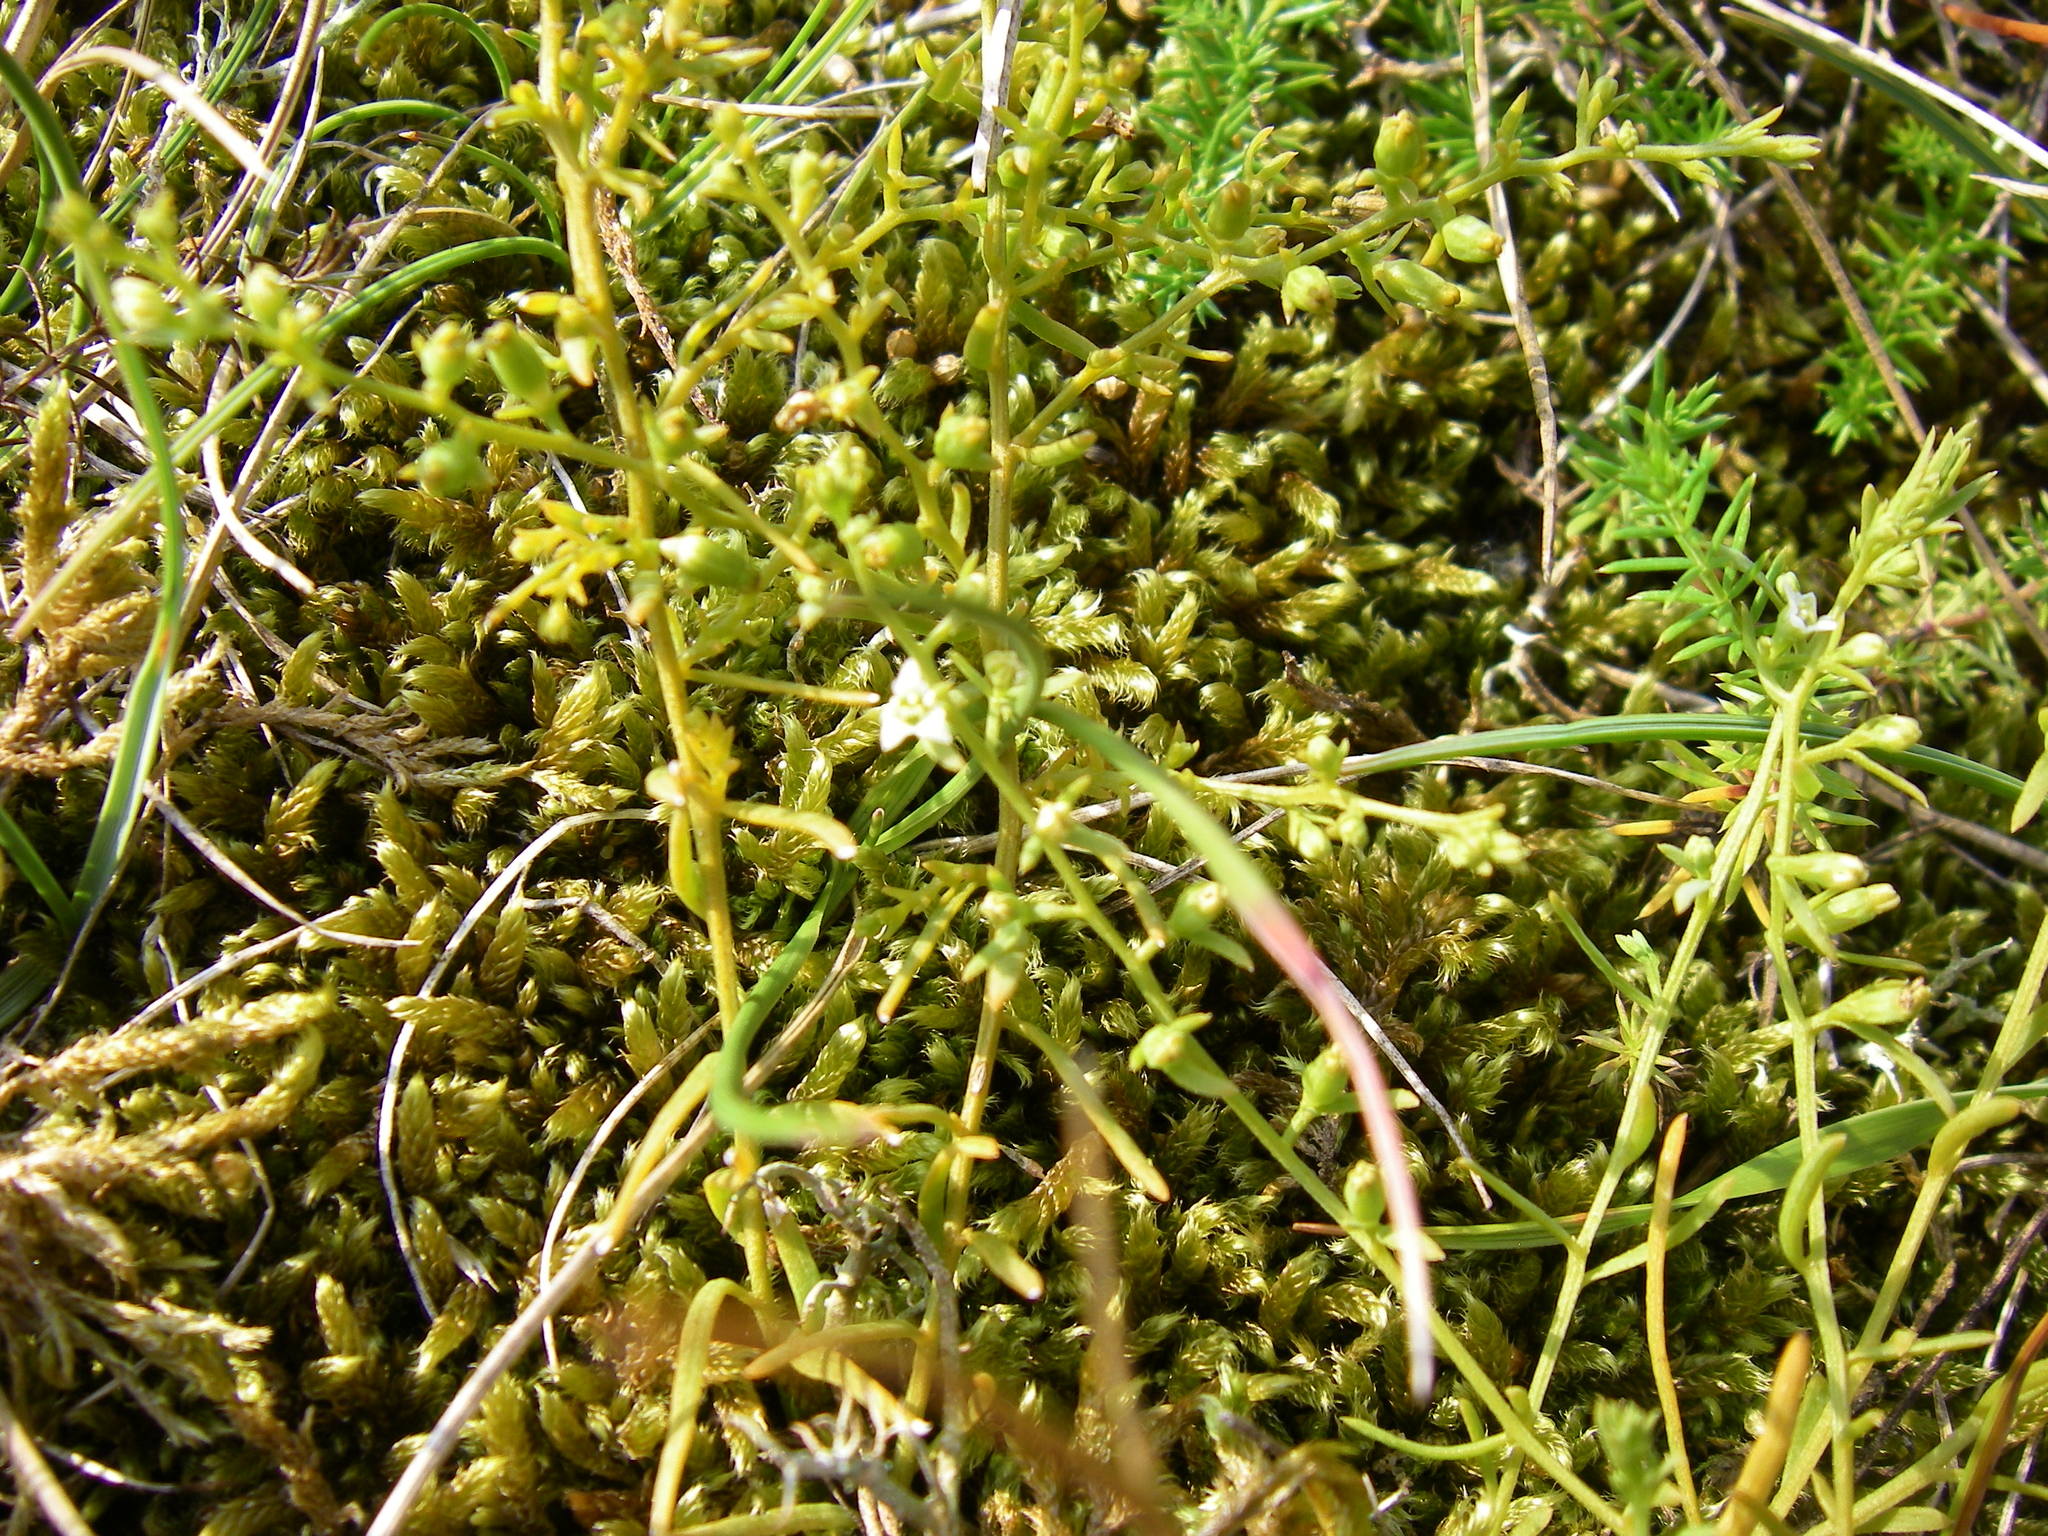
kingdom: Plantae
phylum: Tracheophyta
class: Magnoliopsida
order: Santalales
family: Thesiaceae
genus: Thesium
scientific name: Thesium humifusum
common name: Bastard-toadflax
